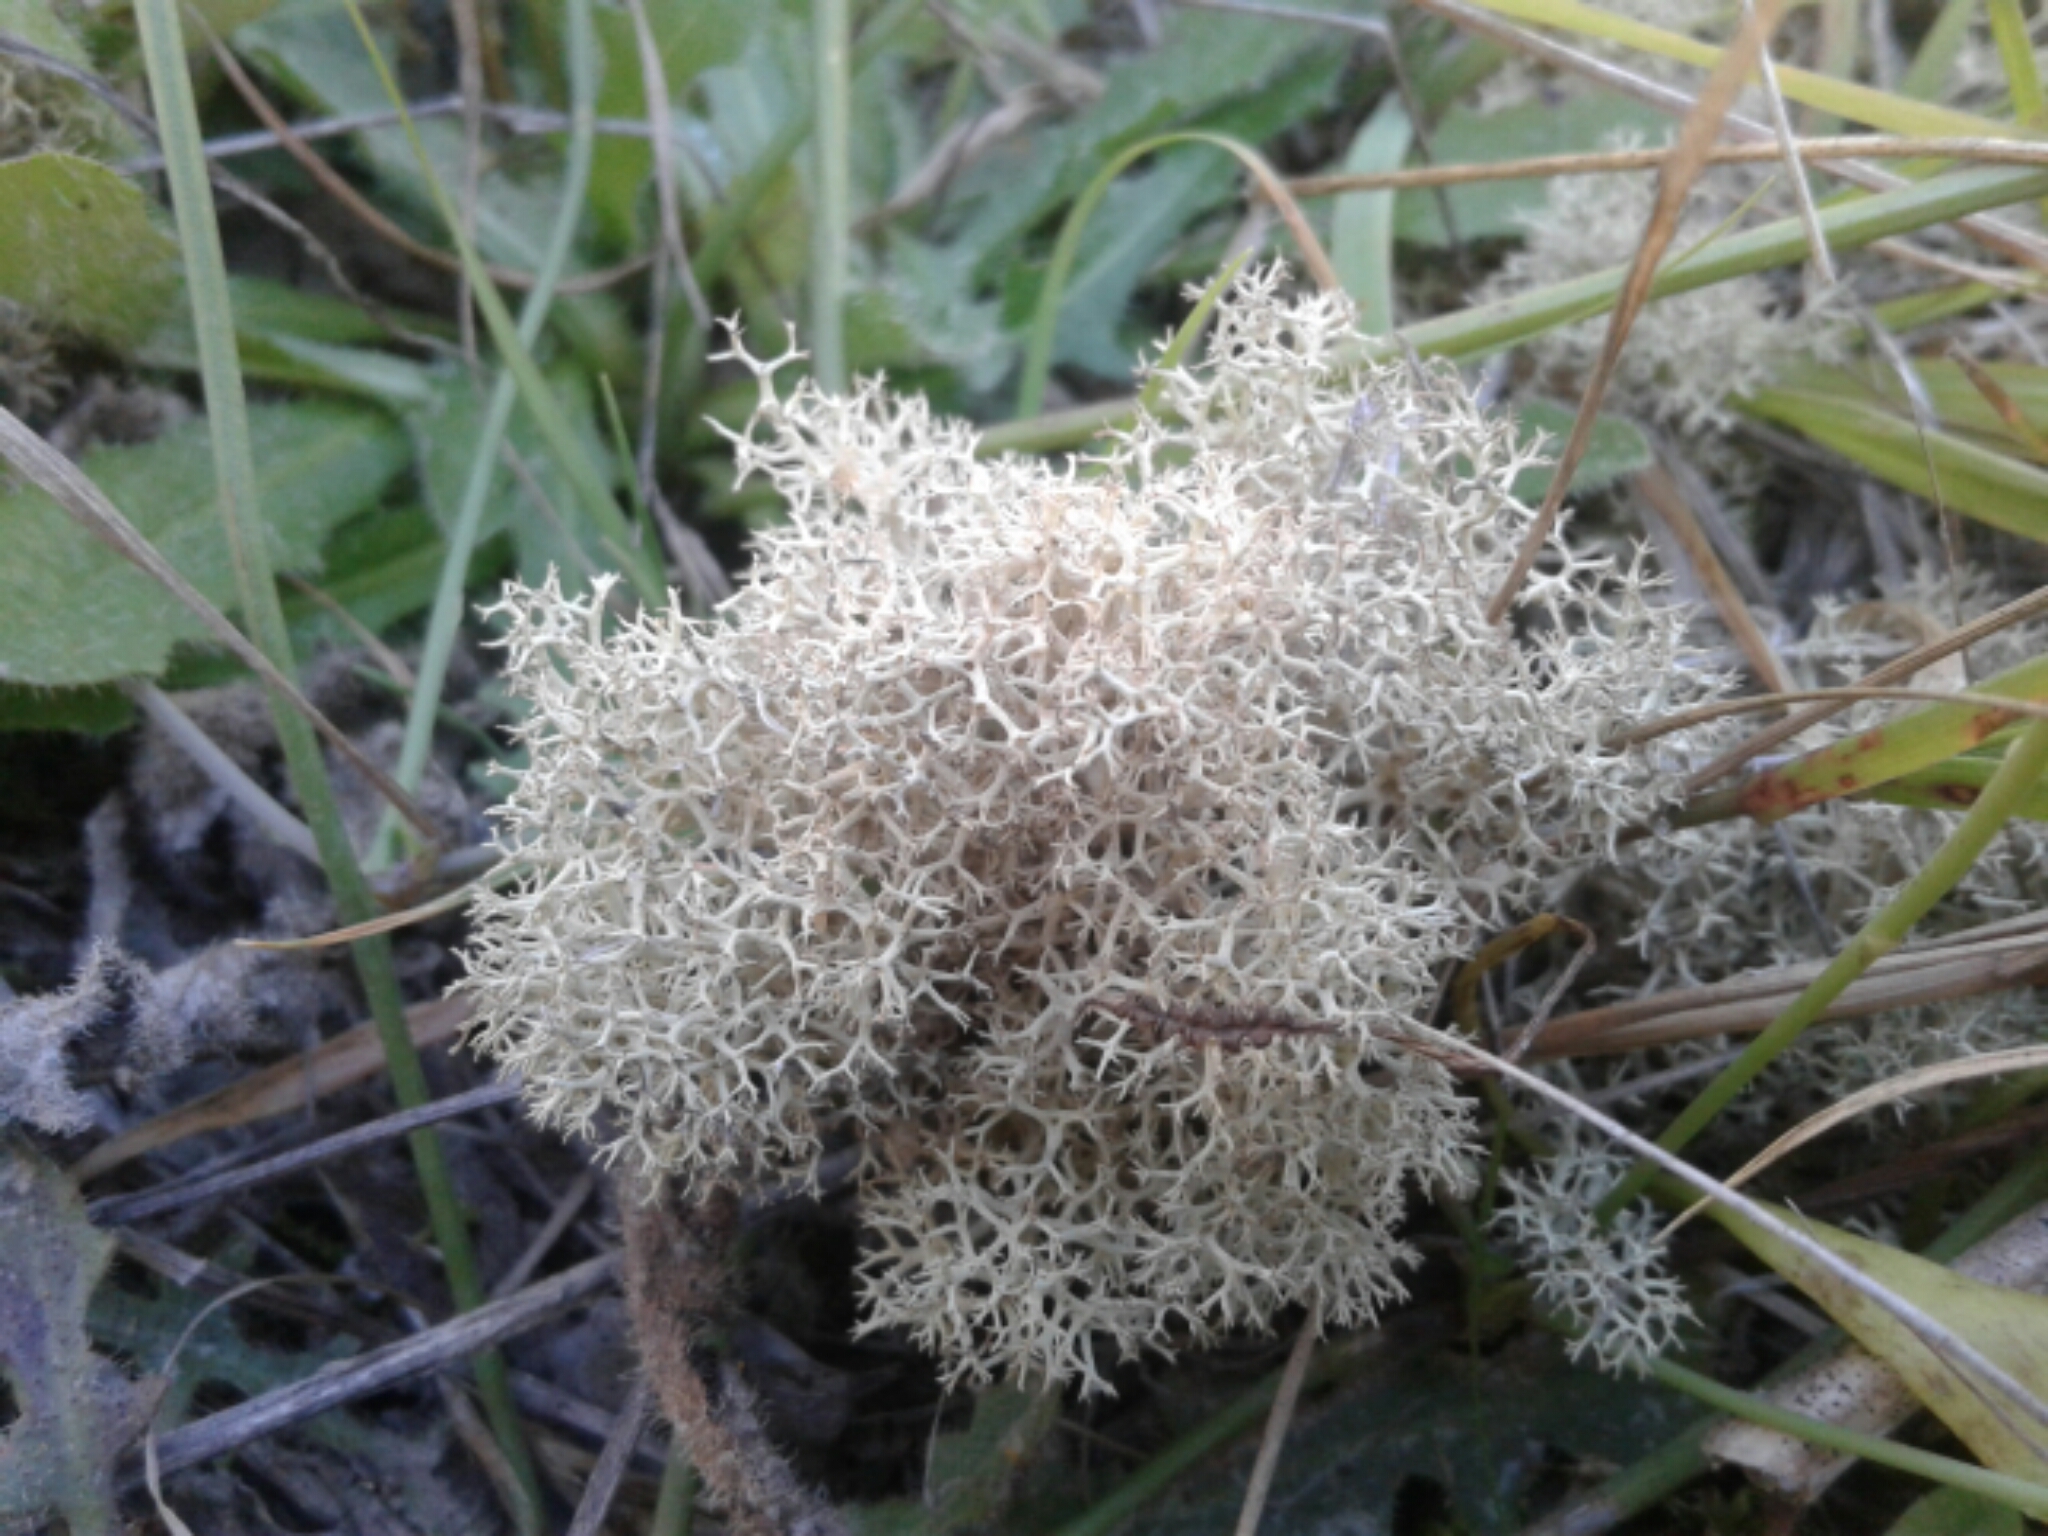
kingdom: Fungi
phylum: Ascomycota
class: Lecanoromycetes
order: Lecanorales
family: Cladoniaceae
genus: Cladonia
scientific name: Cladonia confusa
